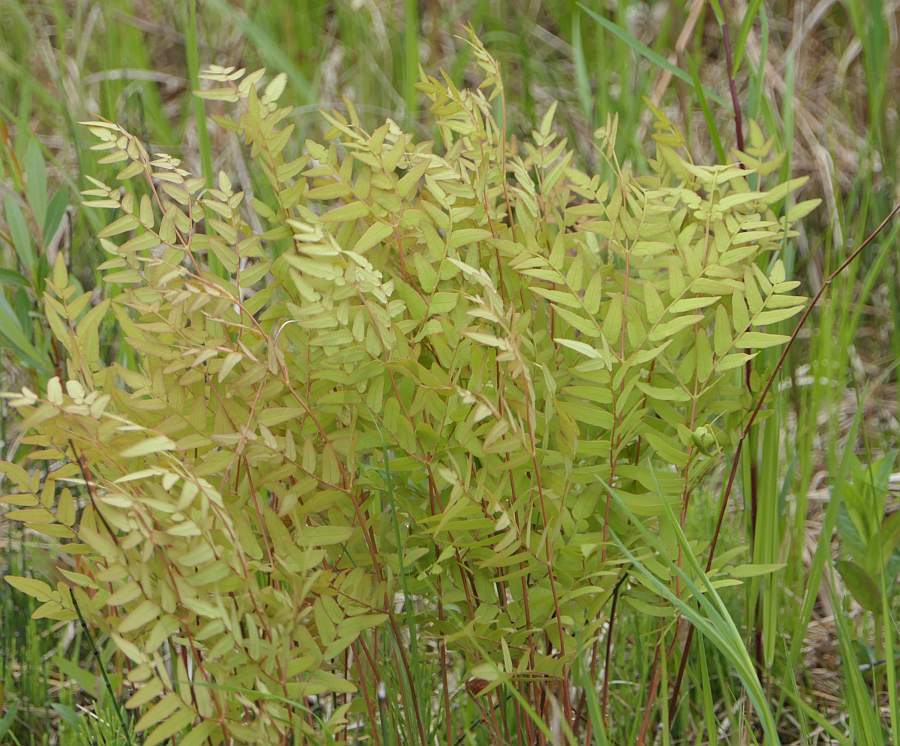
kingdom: Plantae
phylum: Tracheophyta
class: Polypodiopsida
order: Osmundales
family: Osmundaceae
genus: Osmunda
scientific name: Osmunda spectabilis
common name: American royal fern
